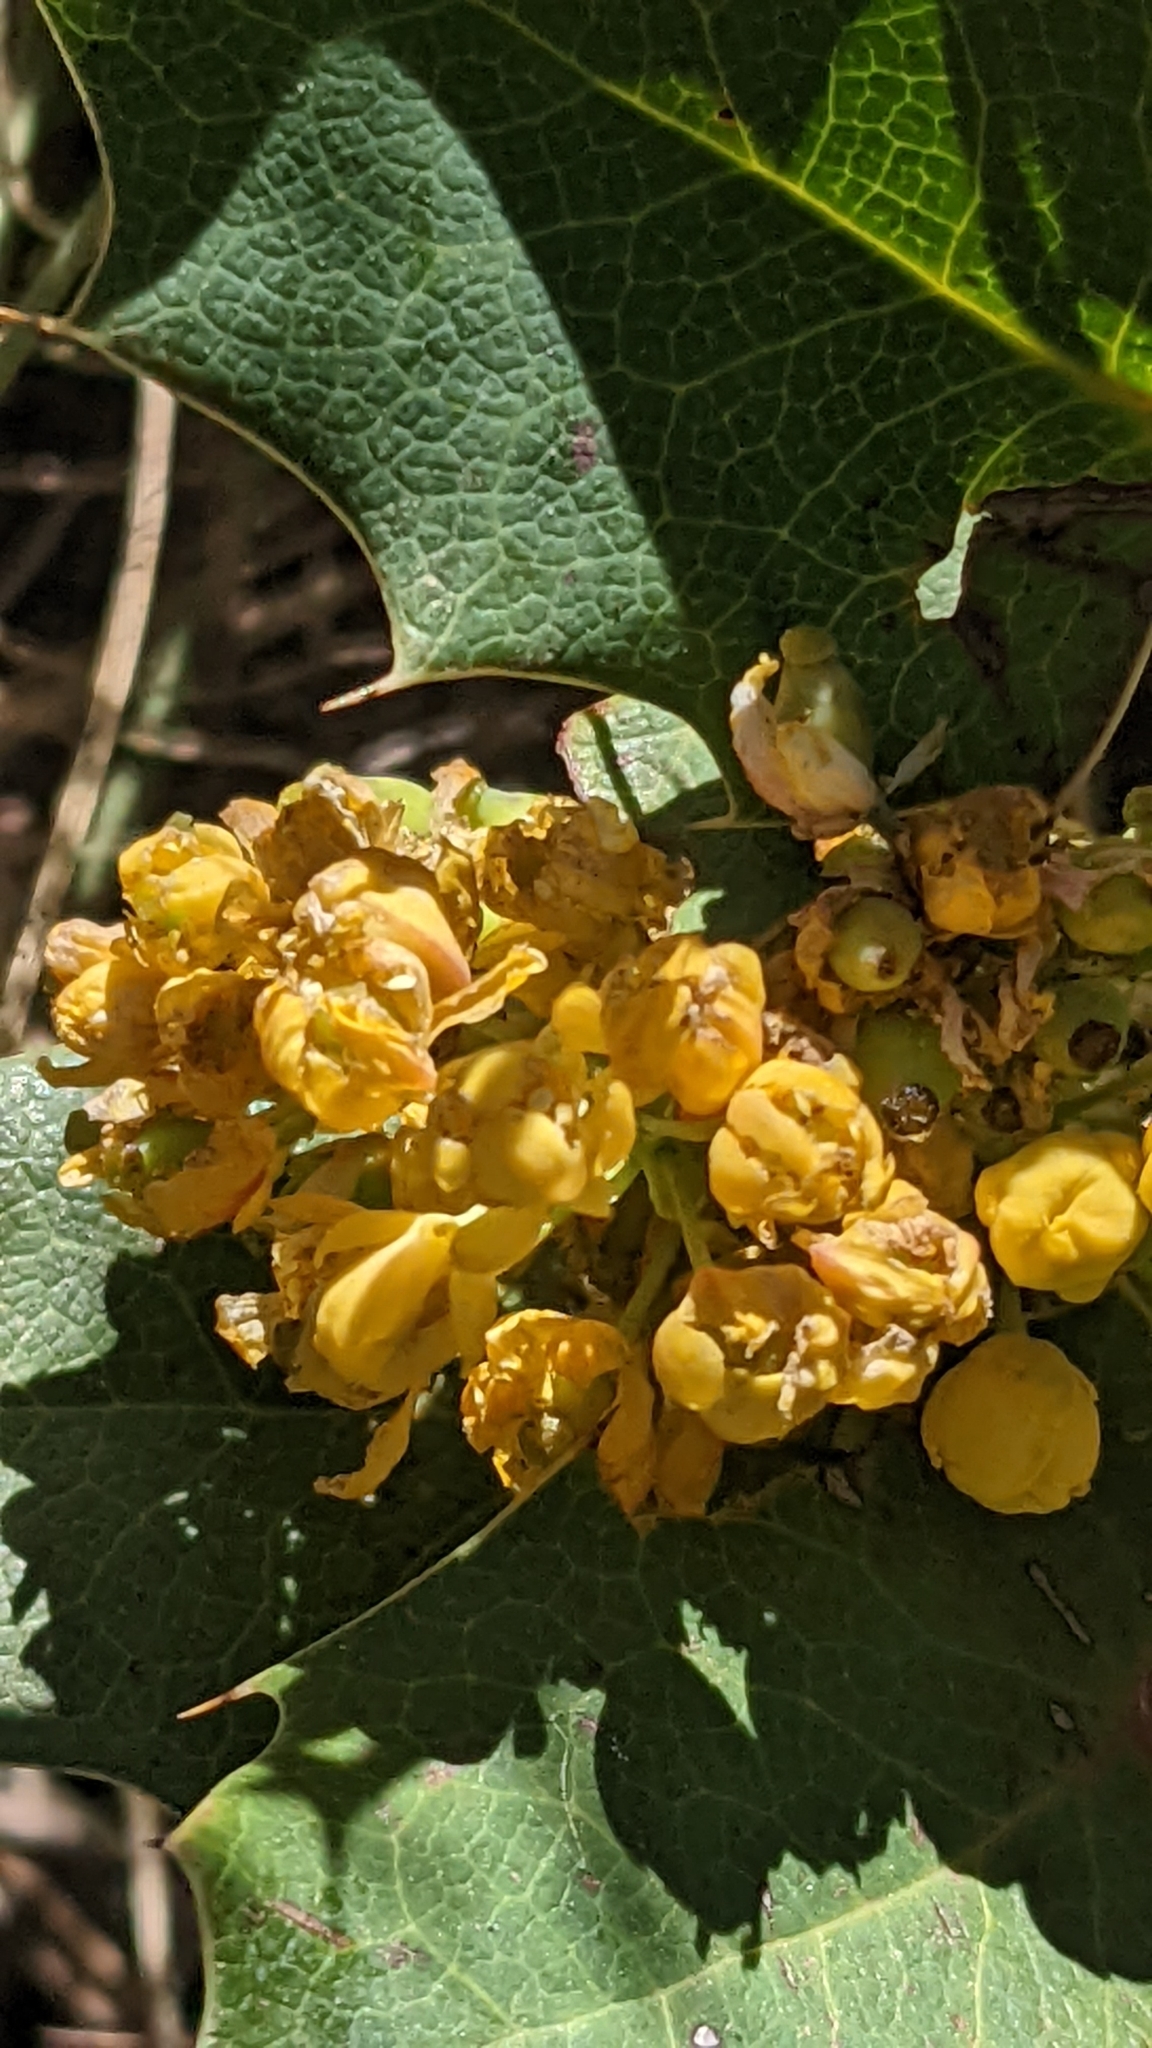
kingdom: Plantae
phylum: Tracheophyta
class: Magnoliopsida
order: Ranunculales
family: Berberidaceae
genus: Mahonia
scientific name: Mahonia repens
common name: Creeping oregon-grape
